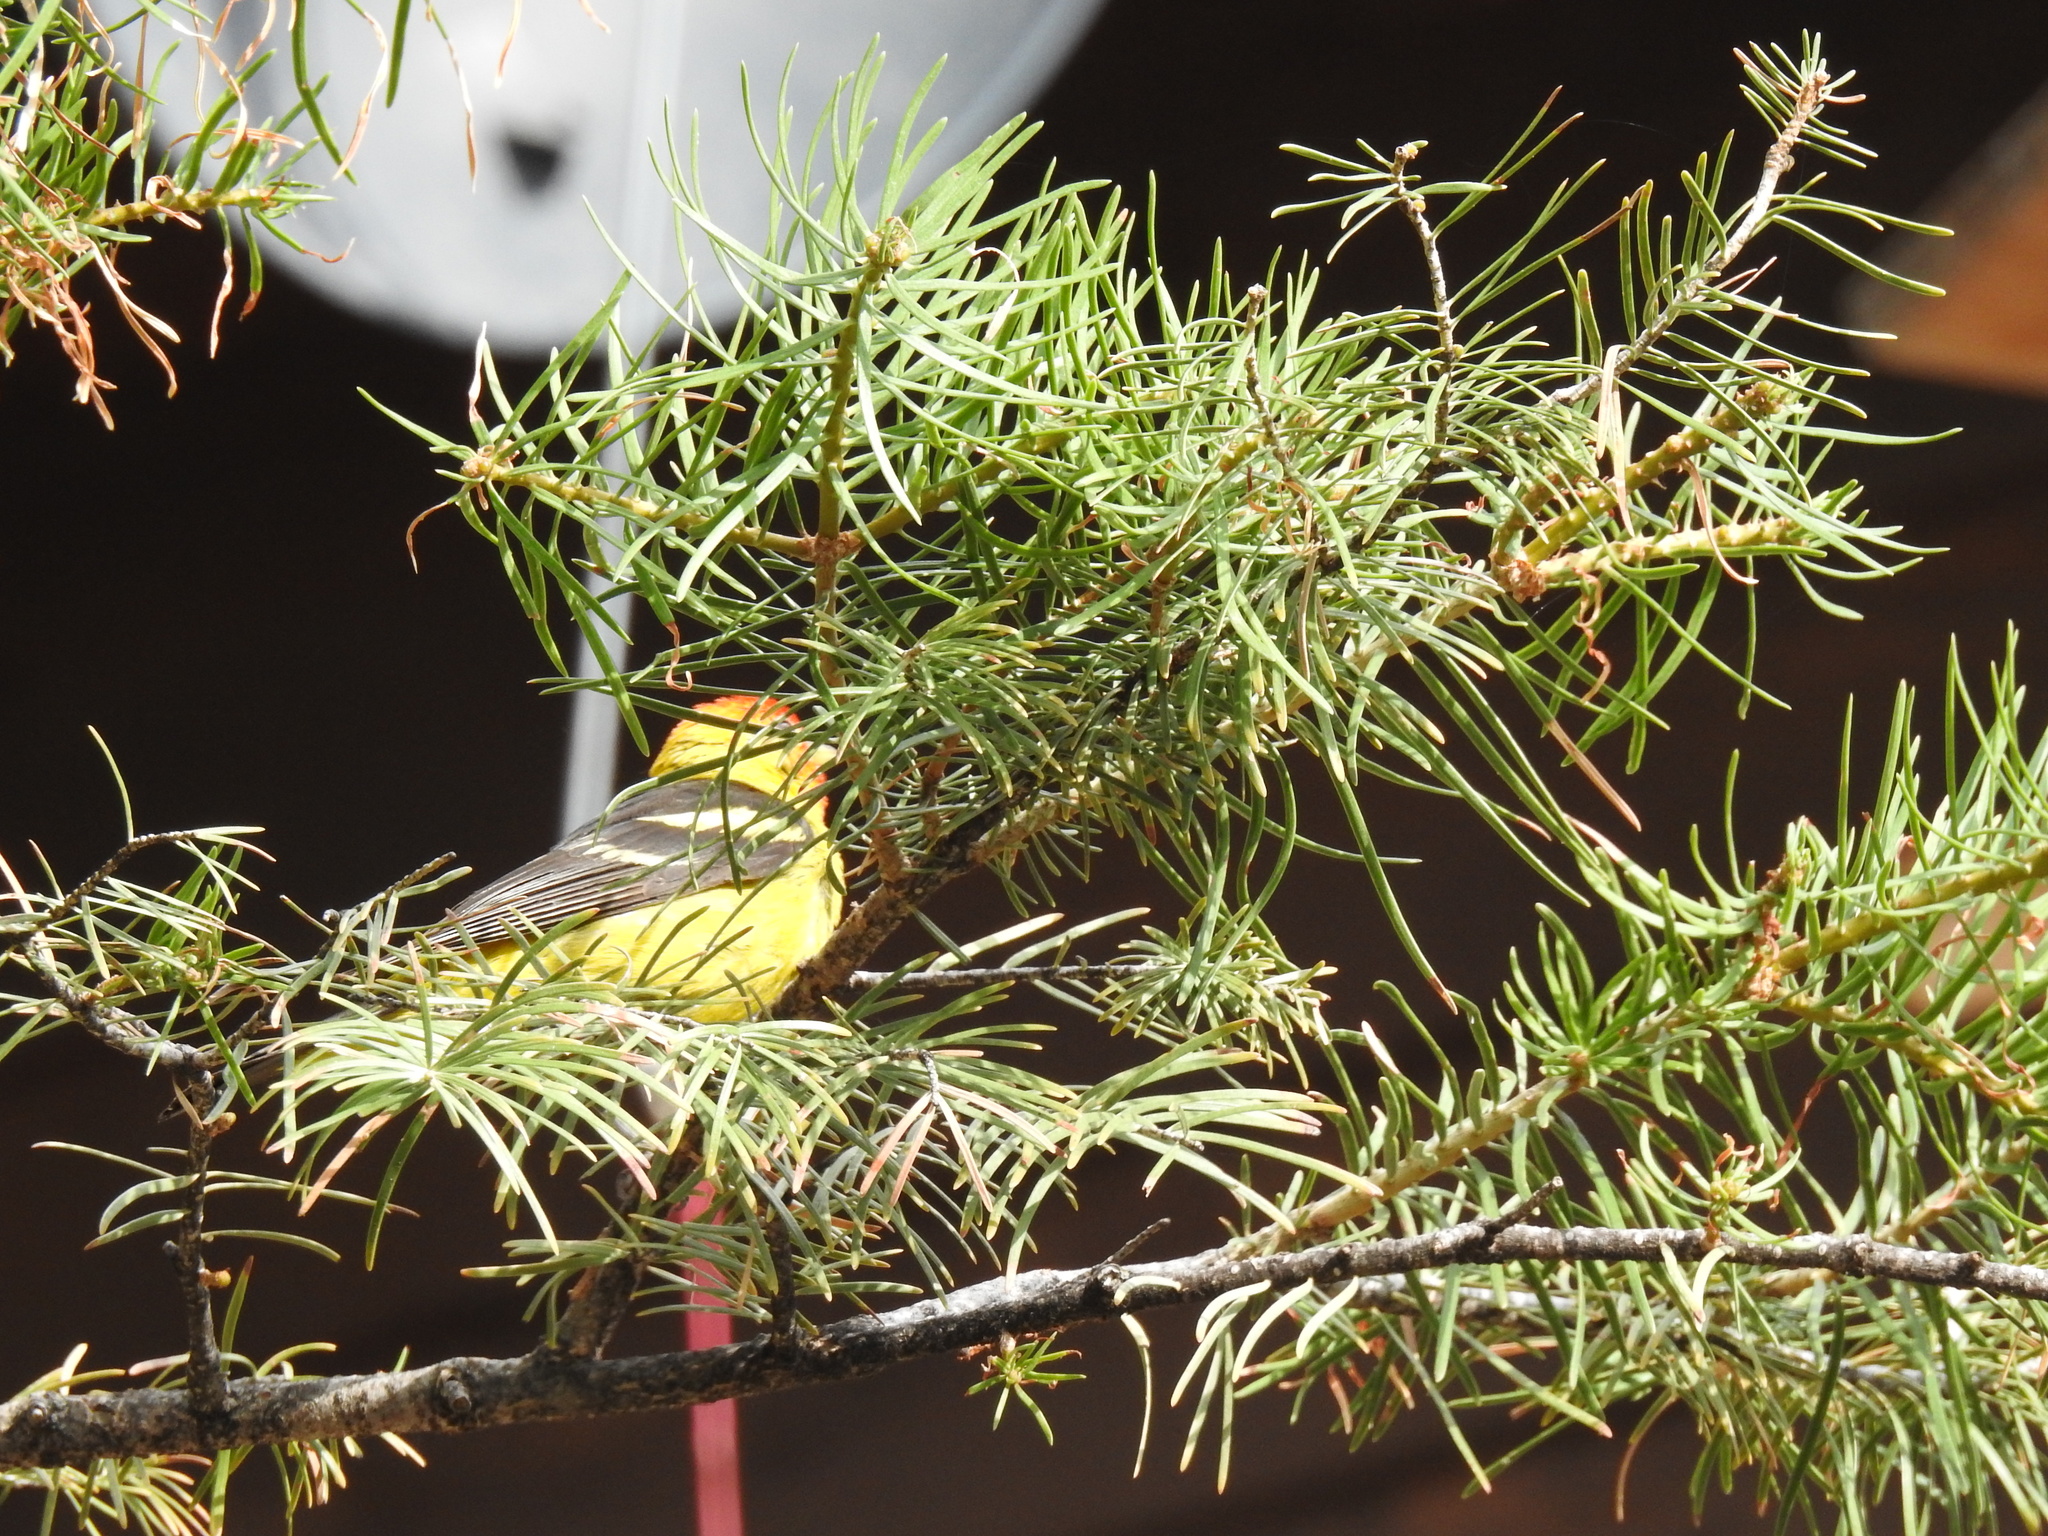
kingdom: Animalia
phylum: Chordata
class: Aves
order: Passeriformes
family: Cardinalidae
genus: Piranga
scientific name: Piranga ludoviciana
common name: Western tanager
